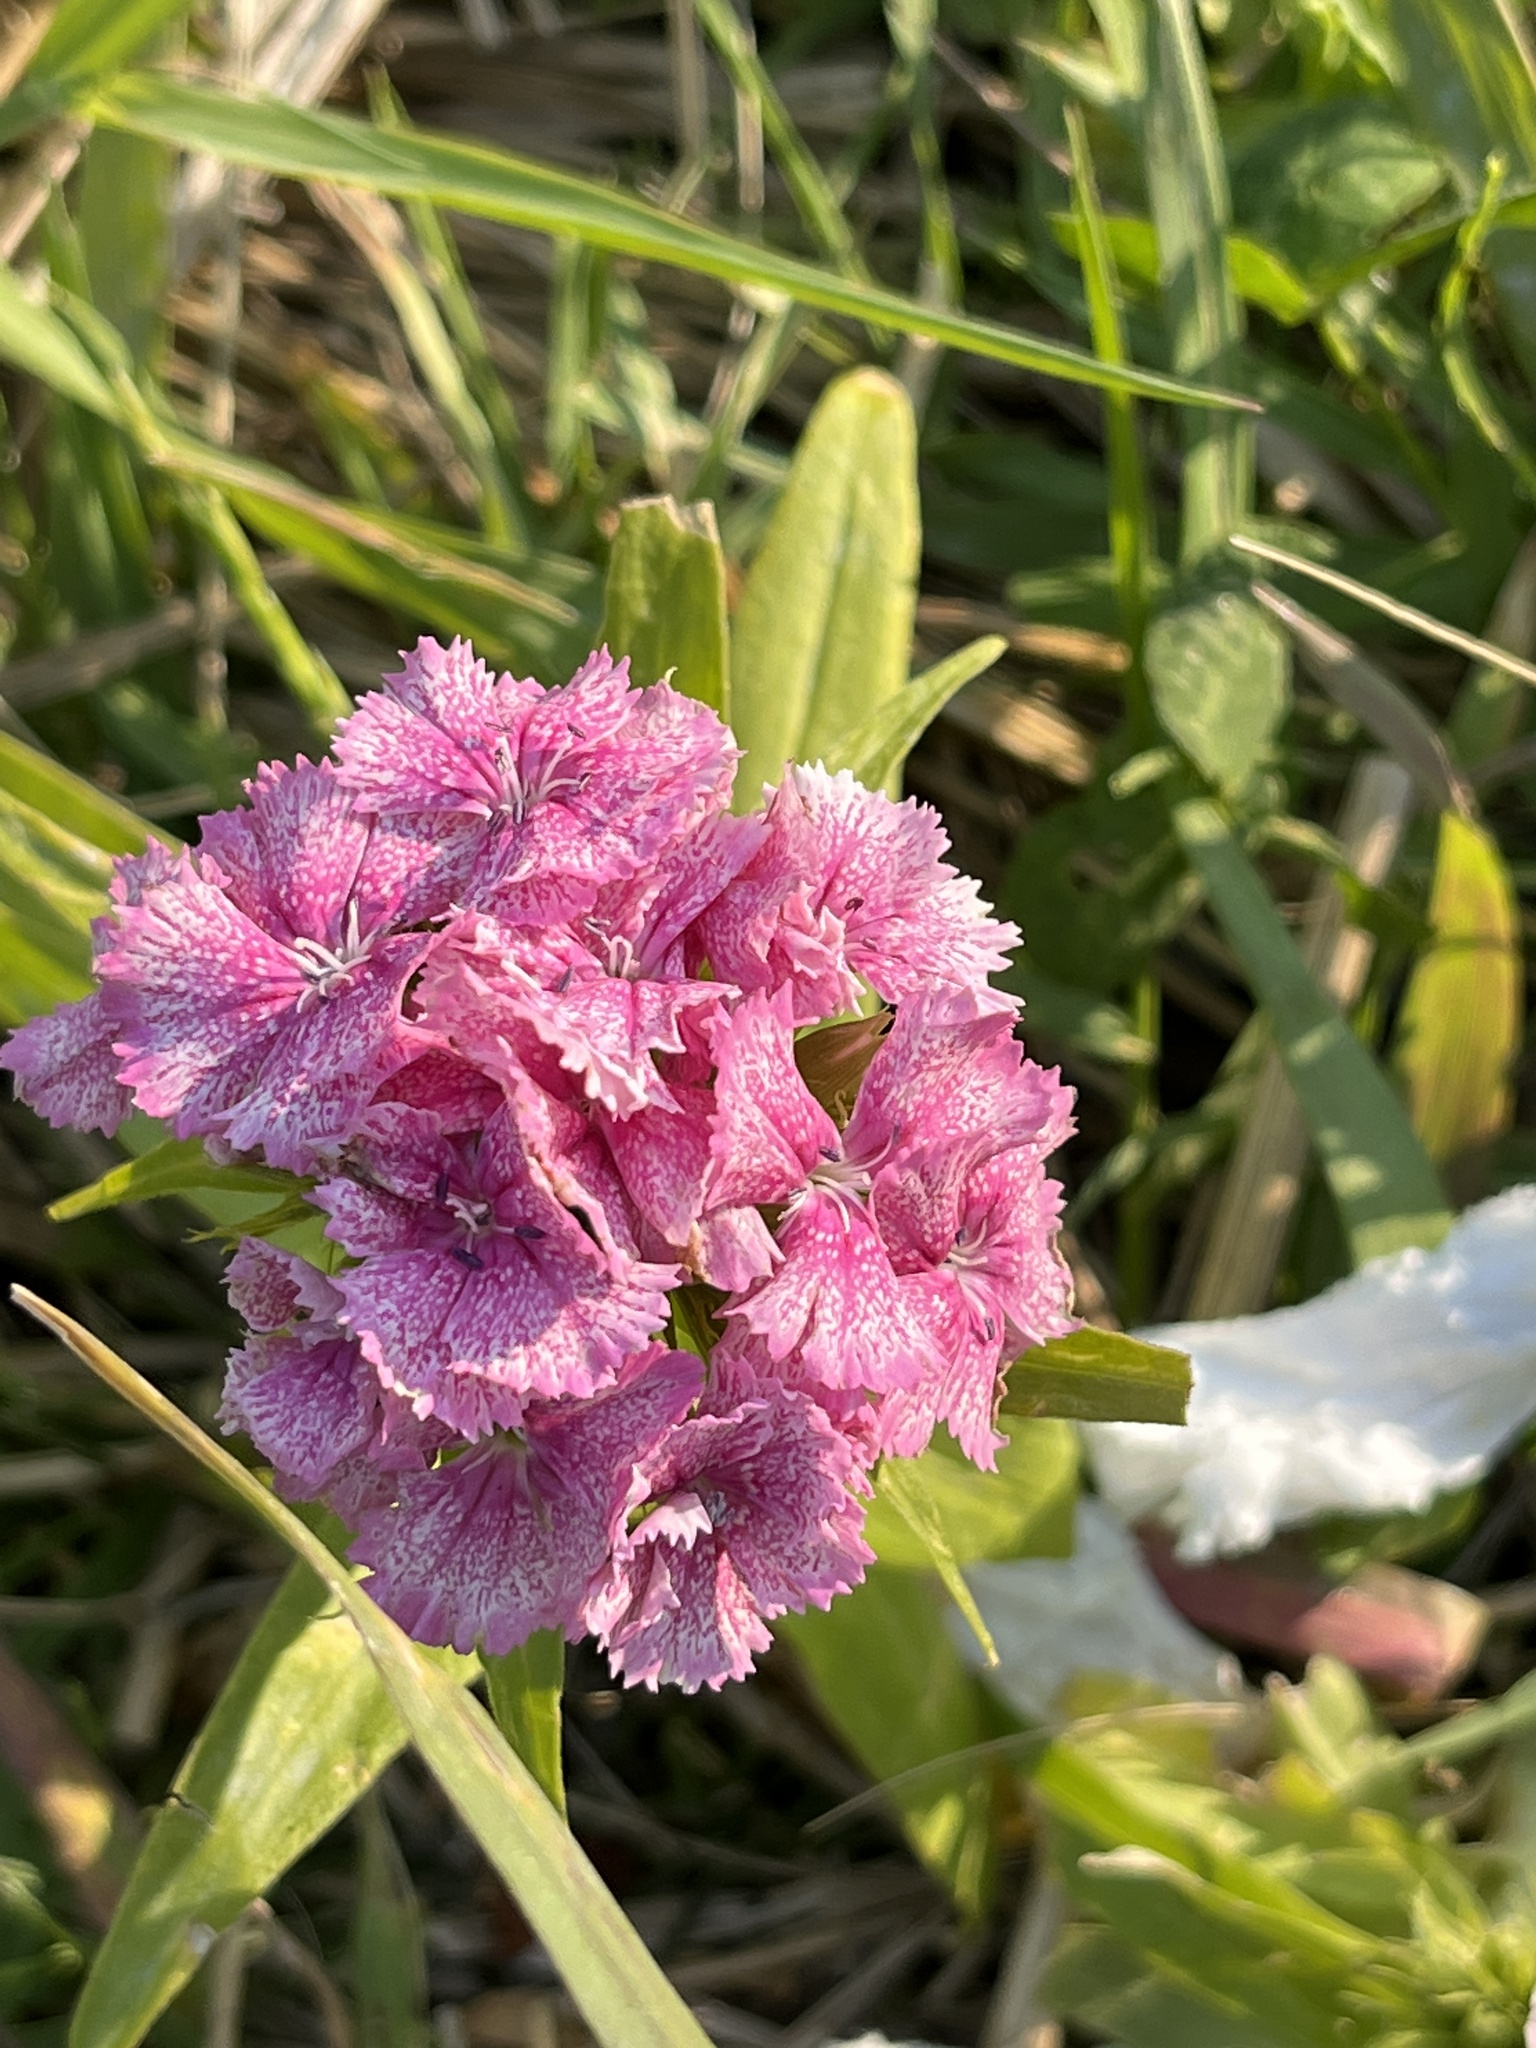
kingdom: Plantae
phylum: Tracheophyta
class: Magnoliopsida
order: Caryophyllales
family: Caryophyllaceae
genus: Dianthus
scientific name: Dianthus barbatus
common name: Sweet-william
